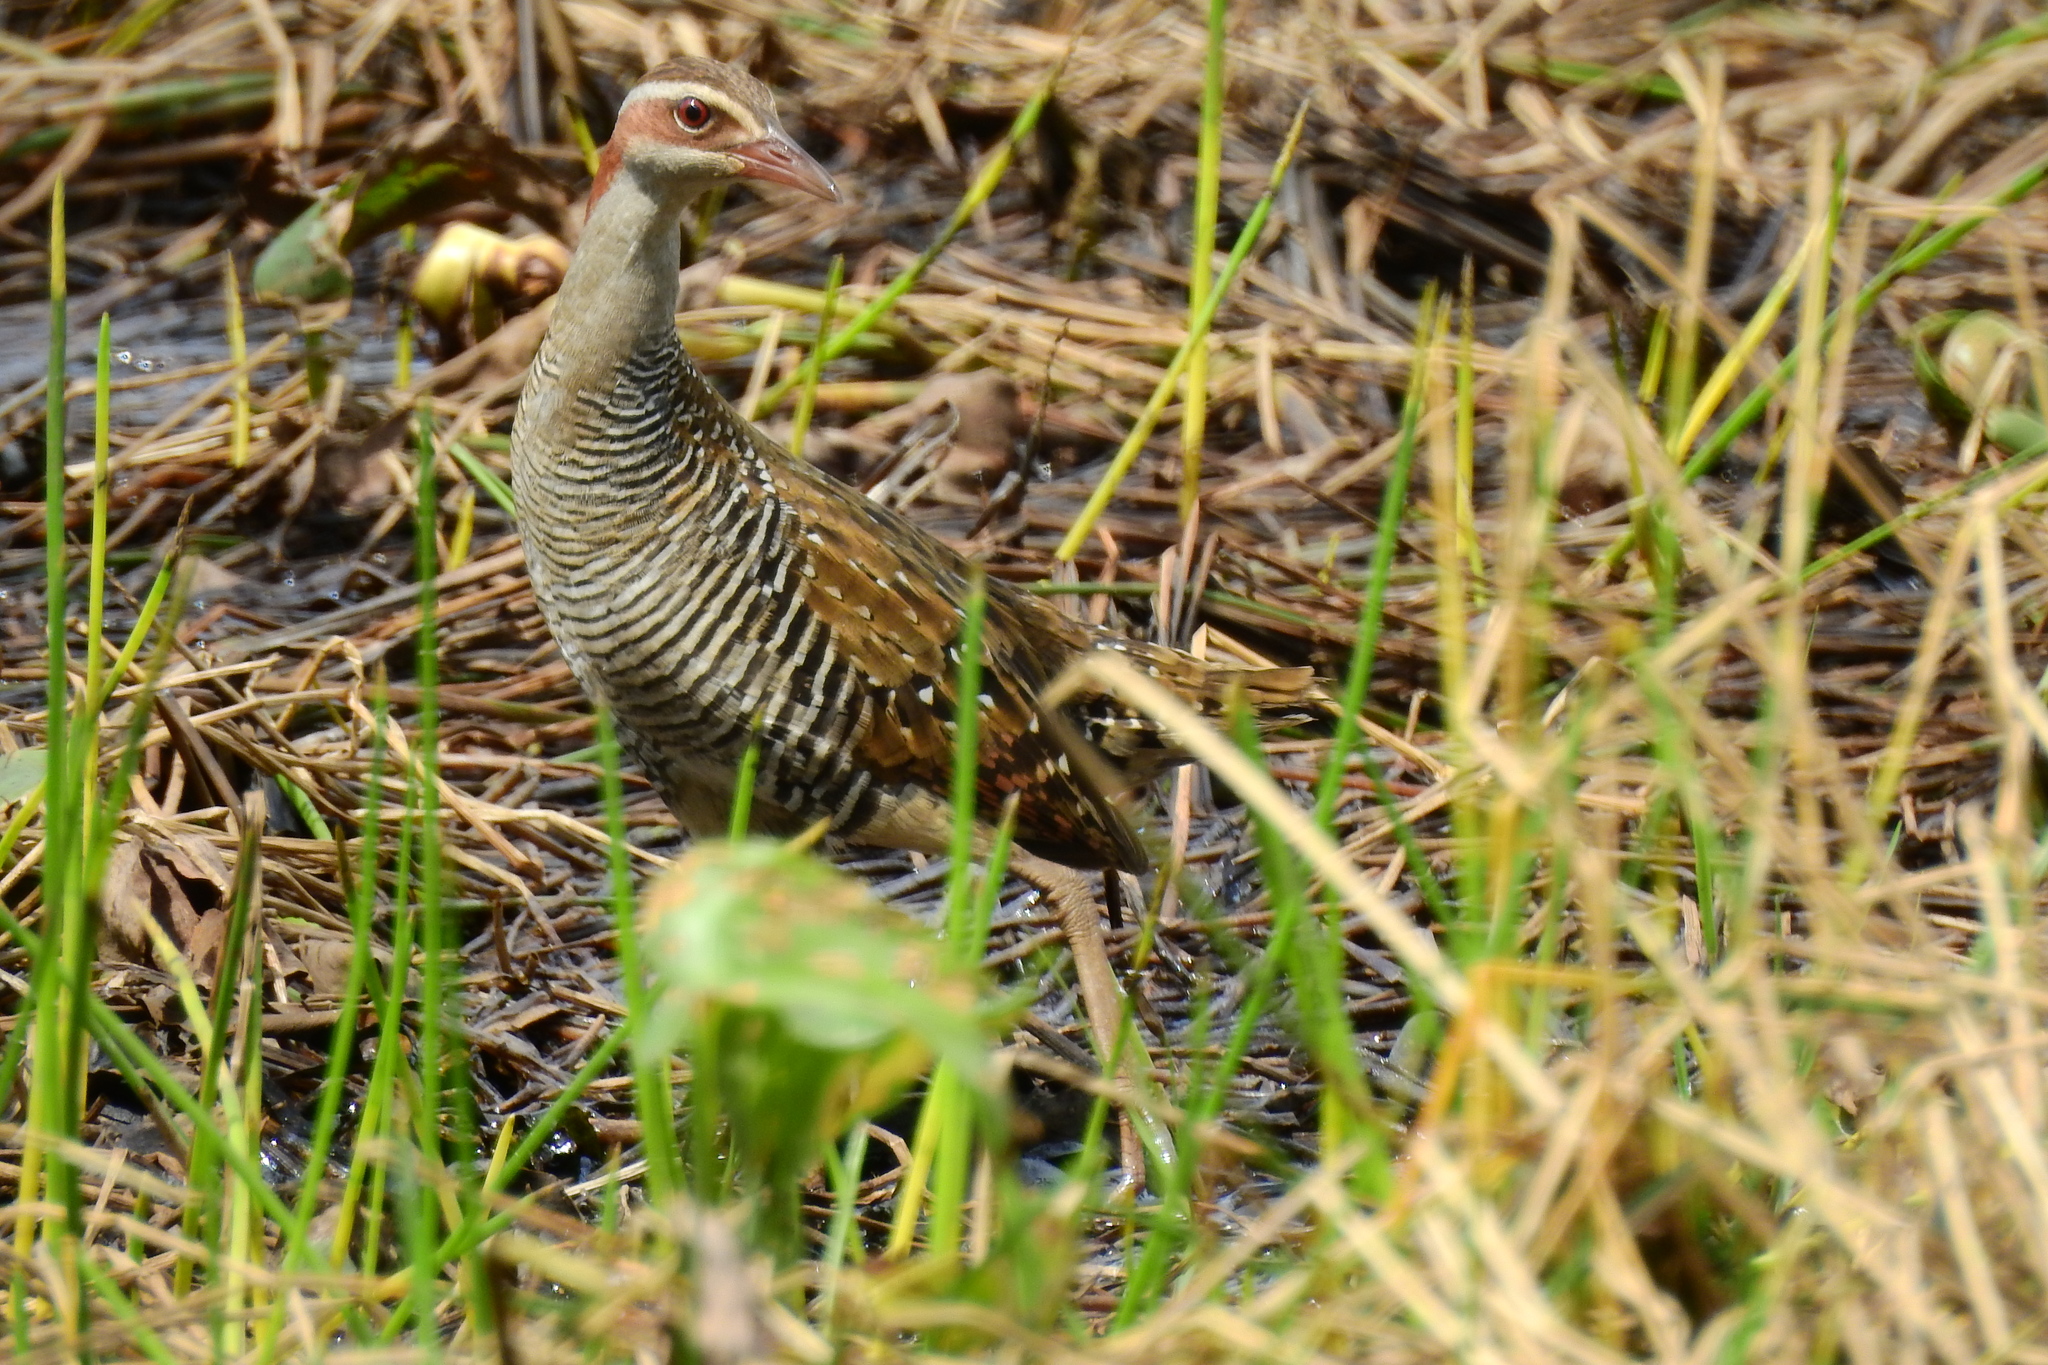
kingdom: Animalia
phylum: Chordata
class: Aves
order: Gruiformes
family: Rallidae
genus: Gallirallus
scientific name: Gallirallus philippensis
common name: Buff-banded rail
